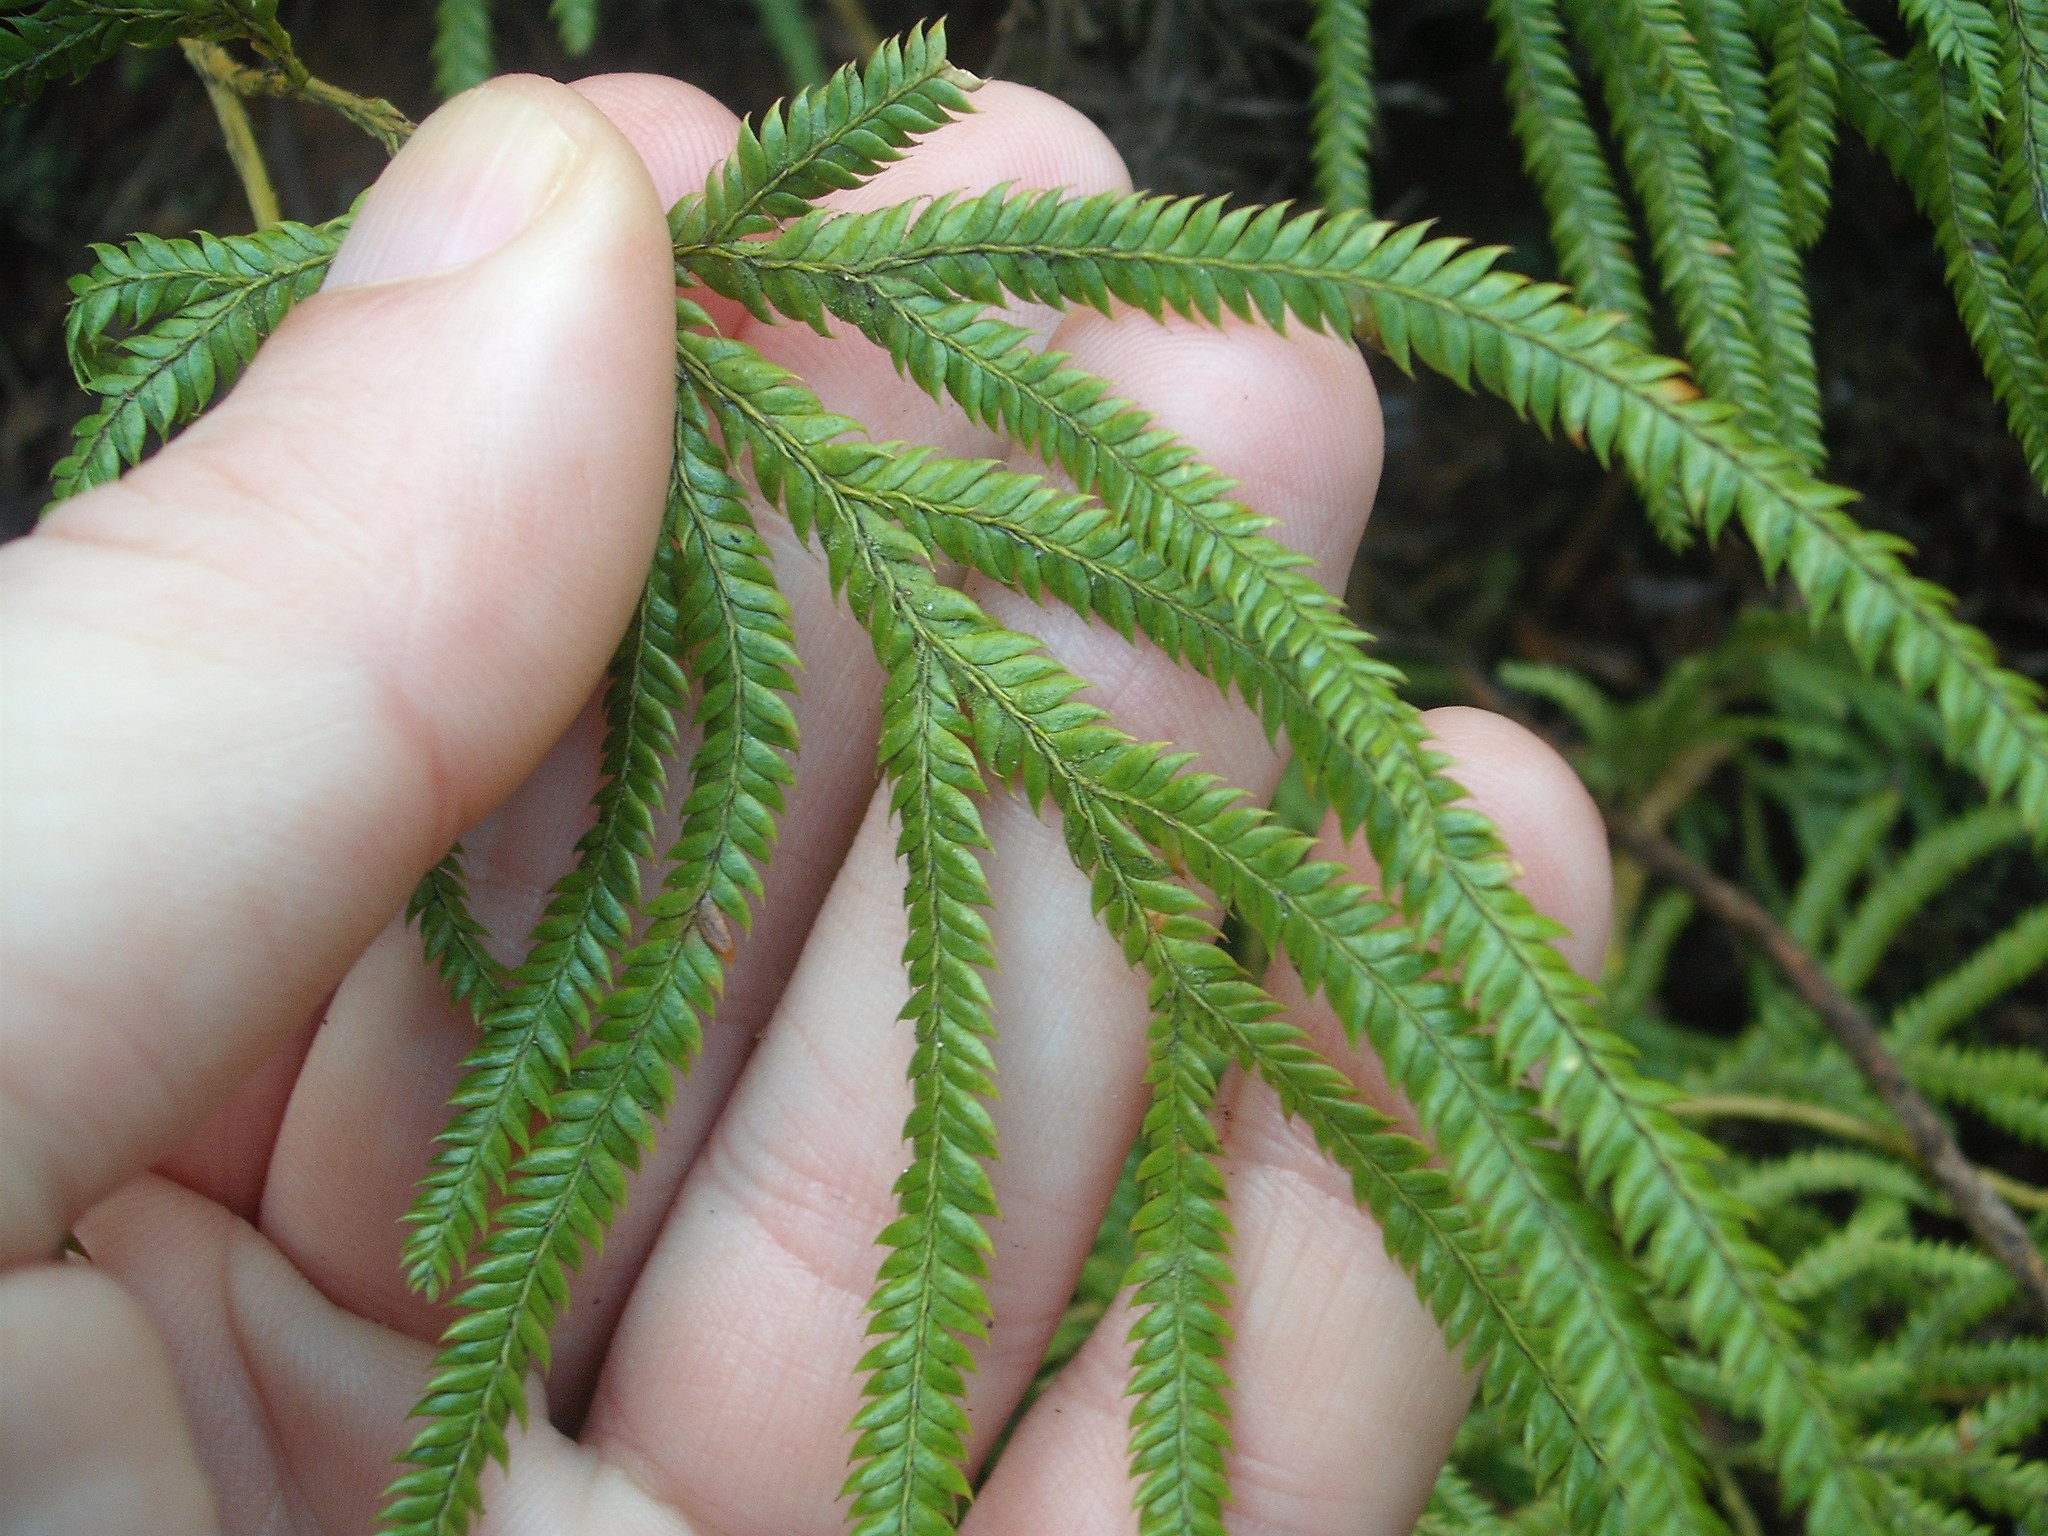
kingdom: Plantae
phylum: Tracheophyta
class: Lycopodiopsida
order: Lycopodiales
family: Lycopodiaceae
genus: Lycopodium
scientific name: Lycopodium volubile
